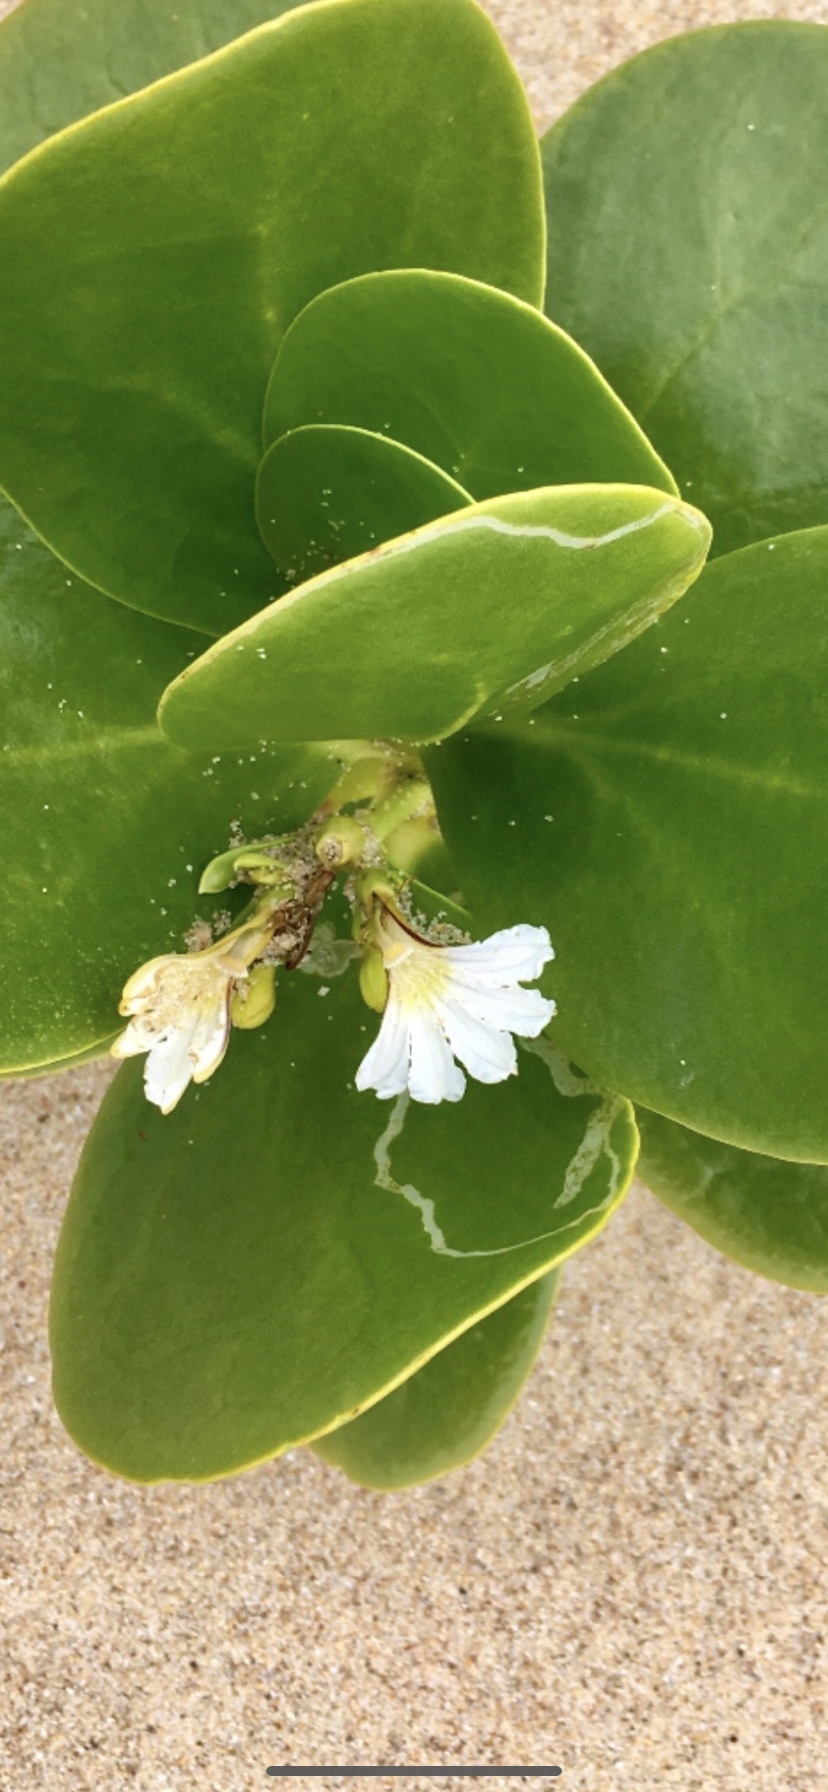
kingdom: Plantae
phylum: Tracheophyta
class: Magnoliopsida
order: Asterales
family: Goodeniaceae
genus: Scaevola
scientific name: Scaevola plumieri
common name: Gull feed
